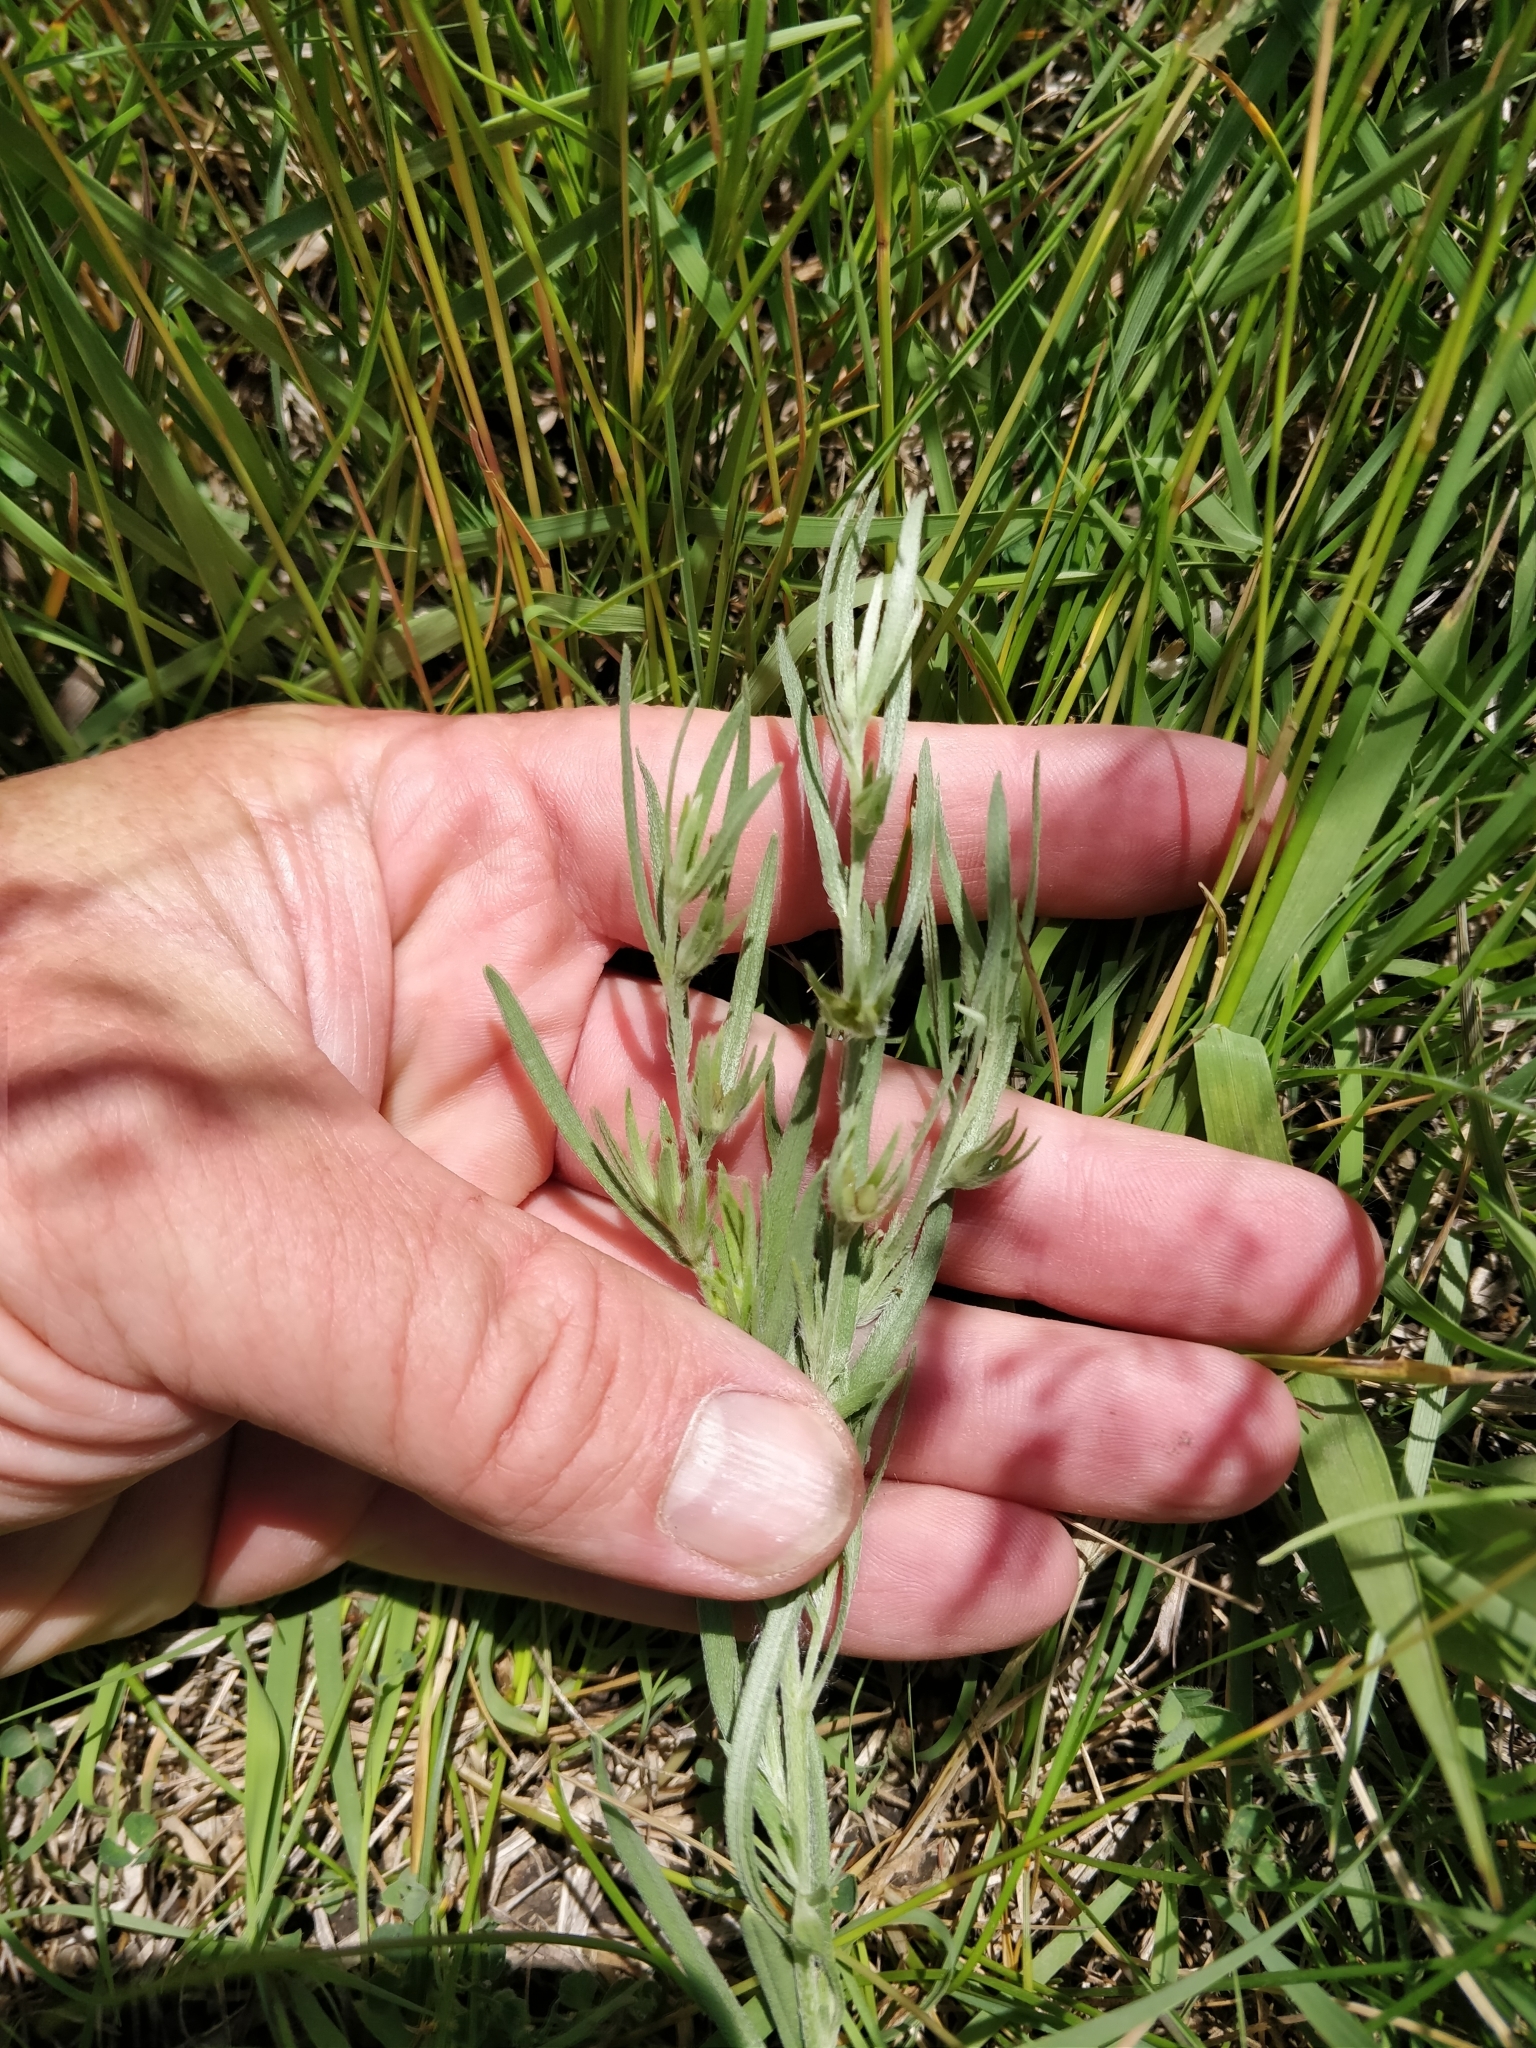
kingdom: Plantae
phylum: Tracheophyta
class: Magnoliopsida
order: Boraginales
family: Boraginaceae
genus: Lithospermum
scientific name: Lithospermum incisum
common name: Fringed gromwell
